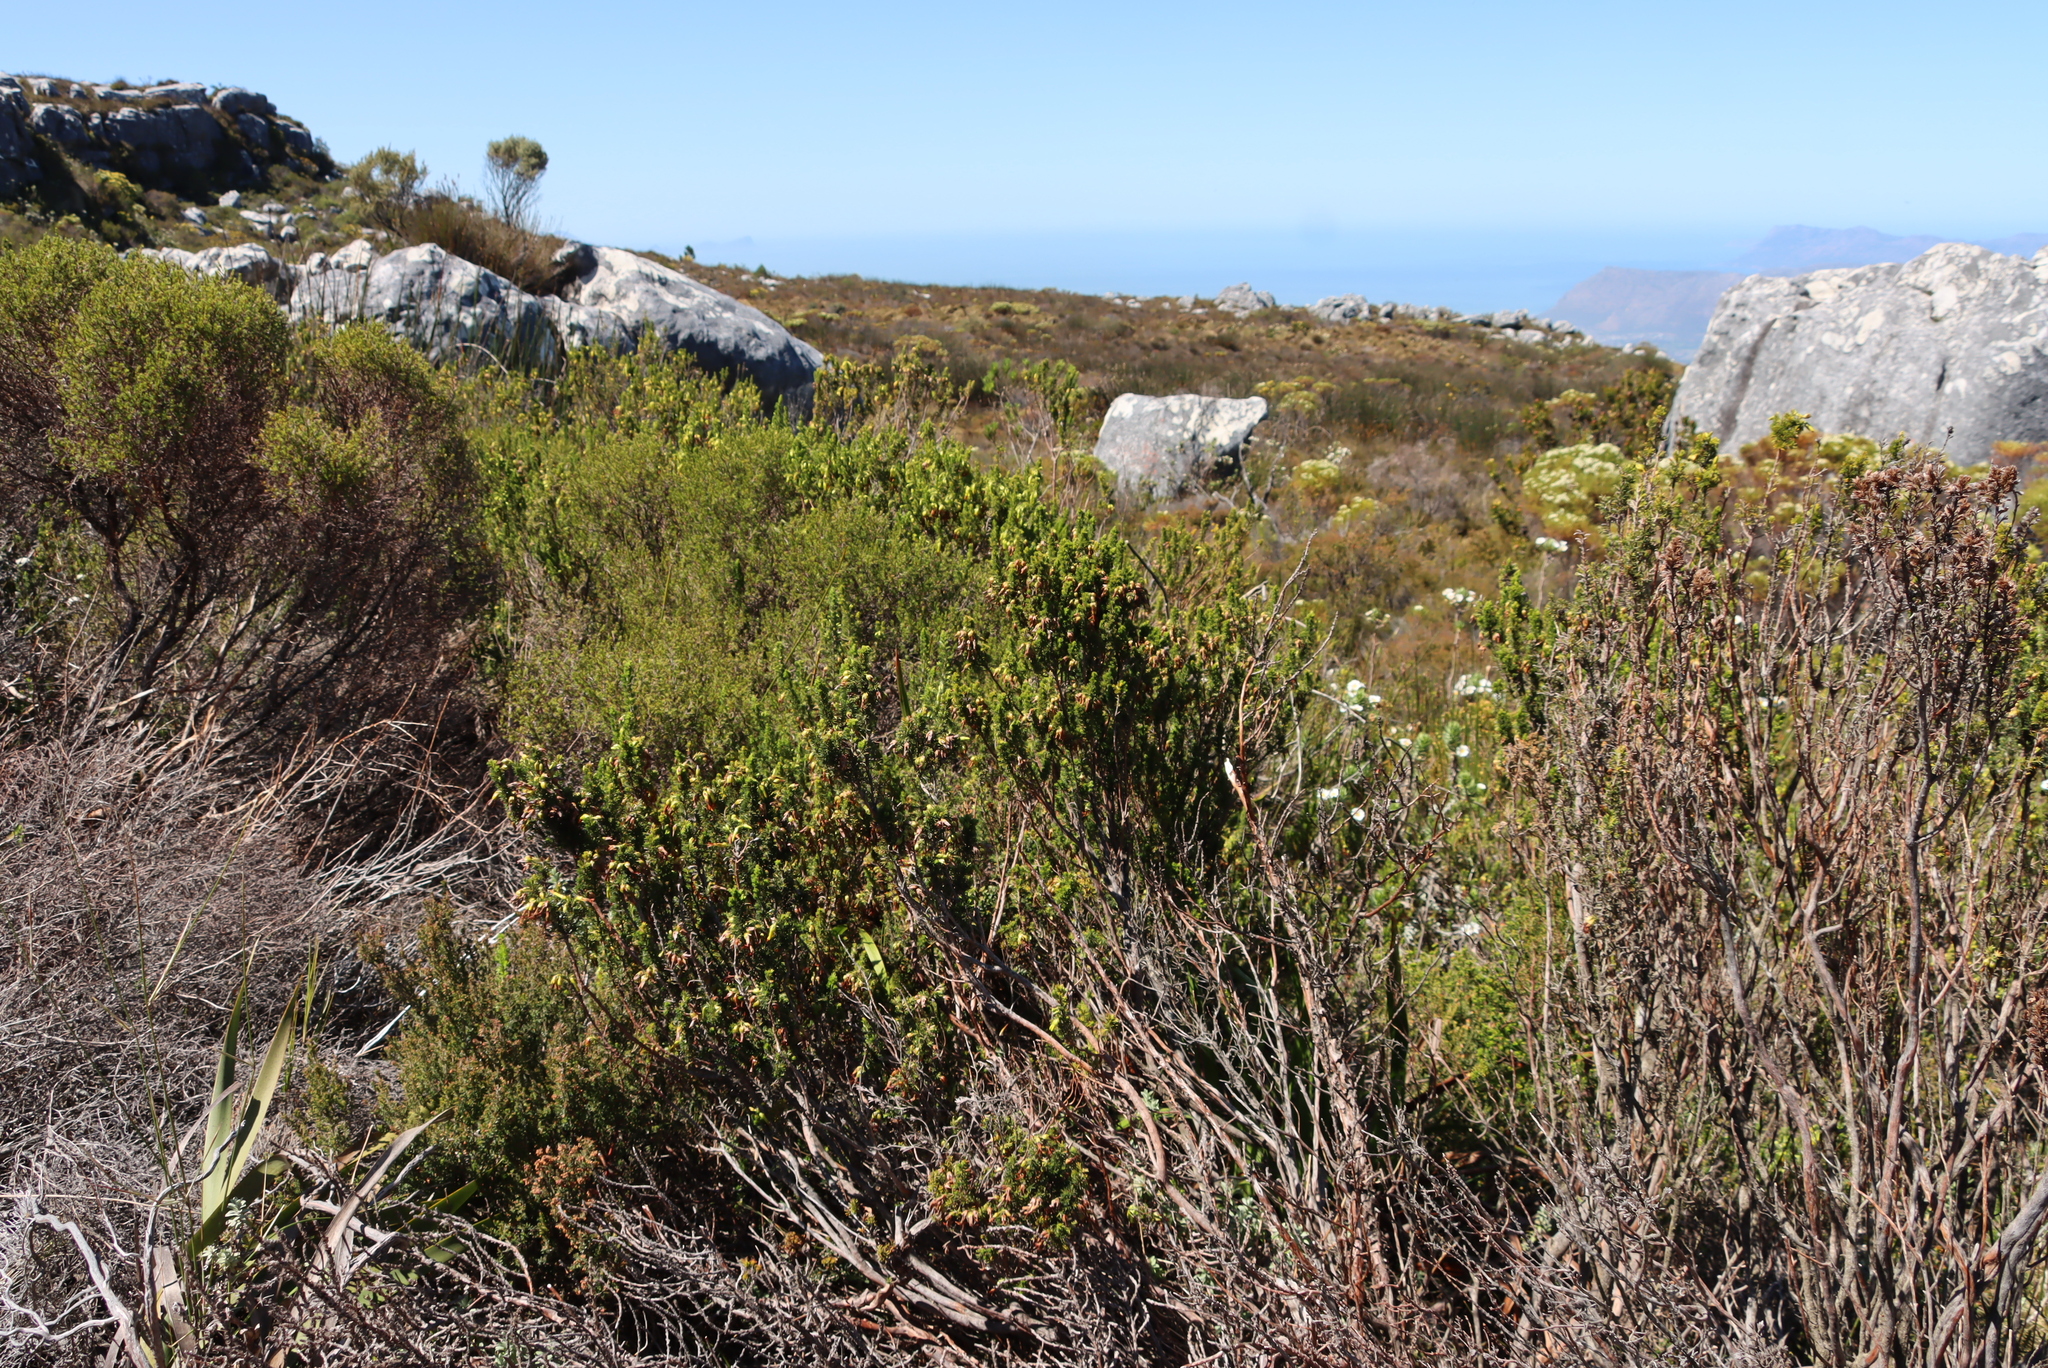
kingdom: Plantae
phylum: Tracheophyta
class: Magnoliopsida
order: Ericales
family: Ericaceae
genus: Erica
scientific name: Erica coccinea
